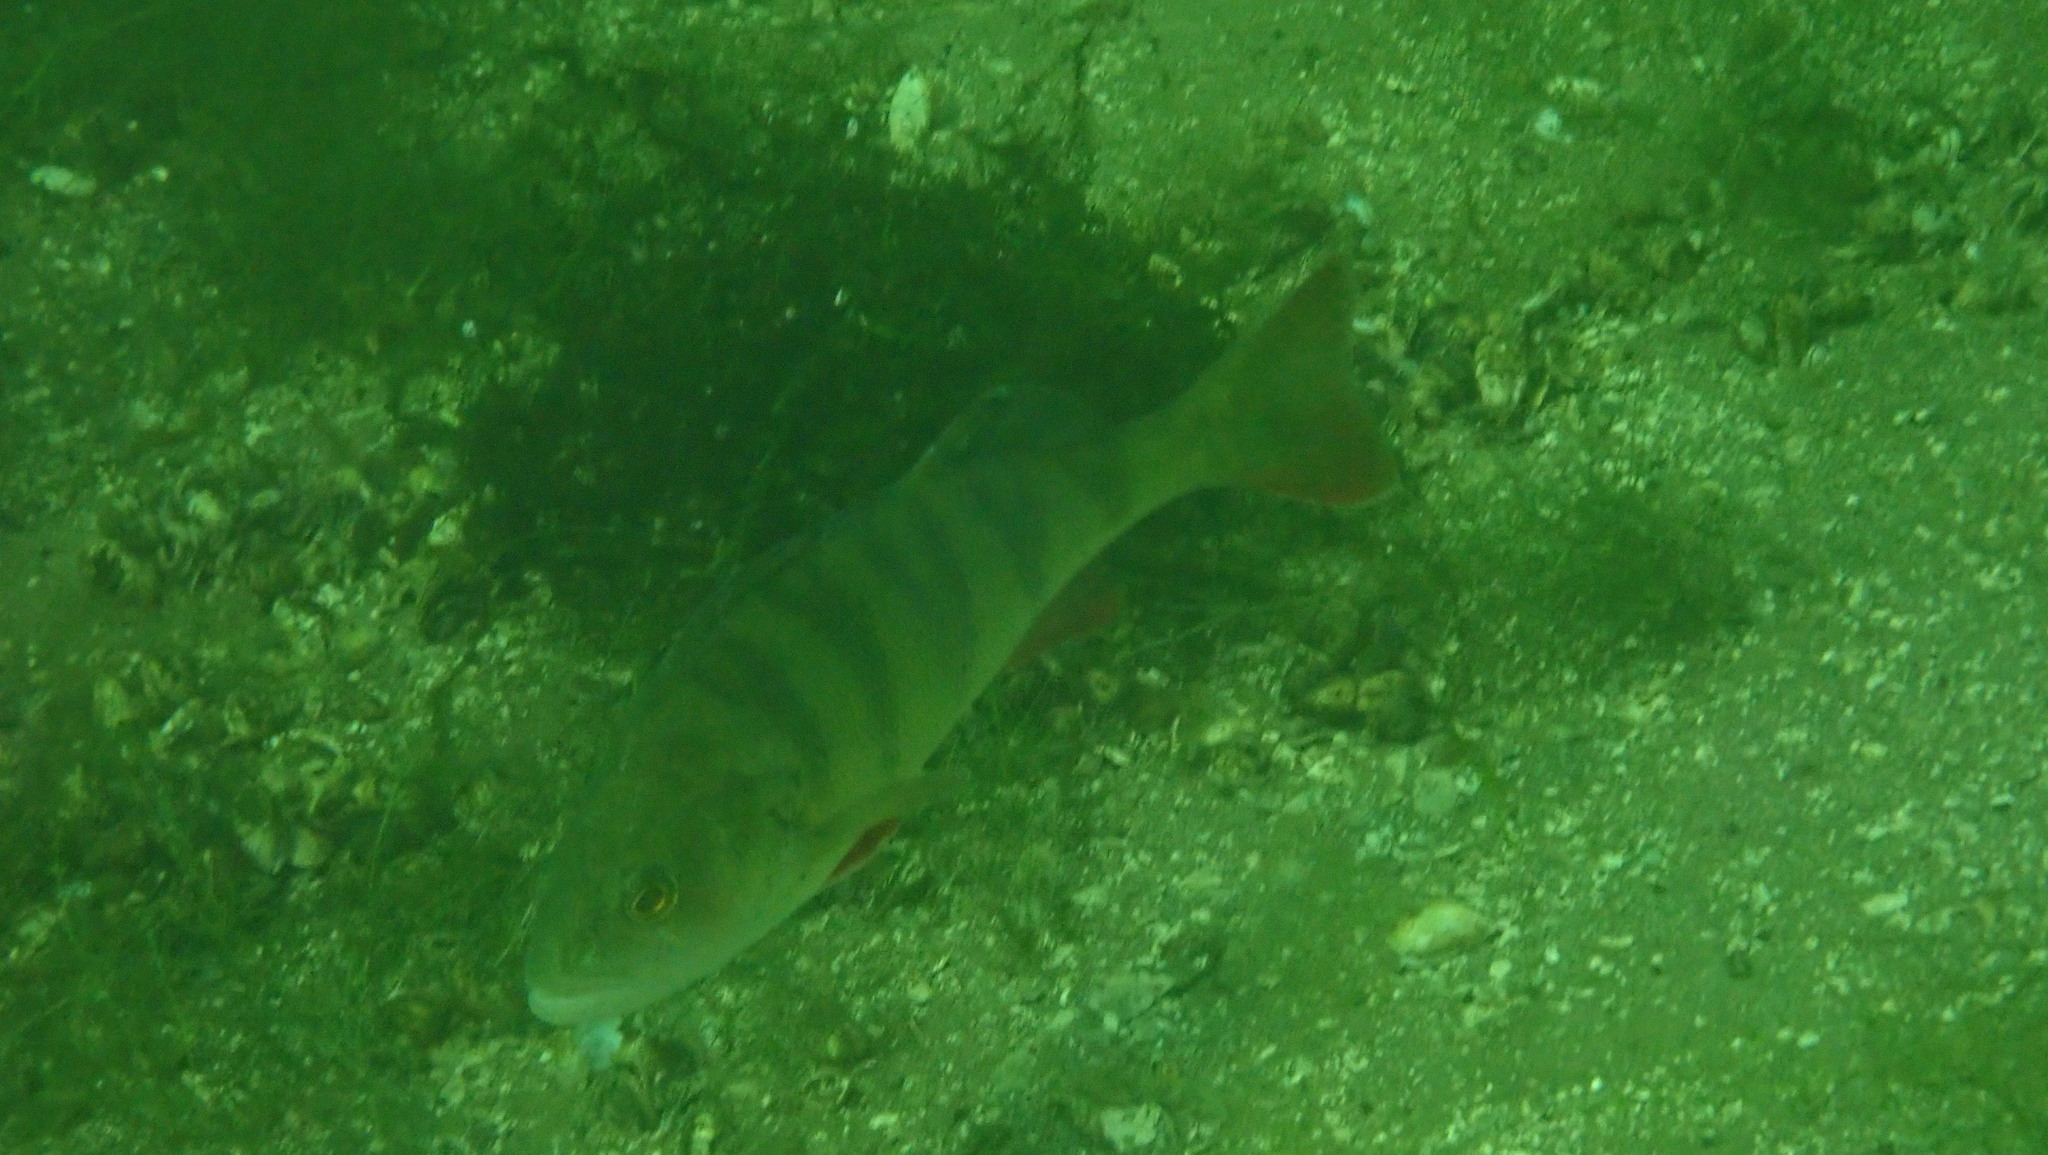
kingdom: Animalia
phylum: Chordata
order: Perciformes
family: Percidae
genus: Perca
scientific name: Perca fluviatilis
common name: Perch
